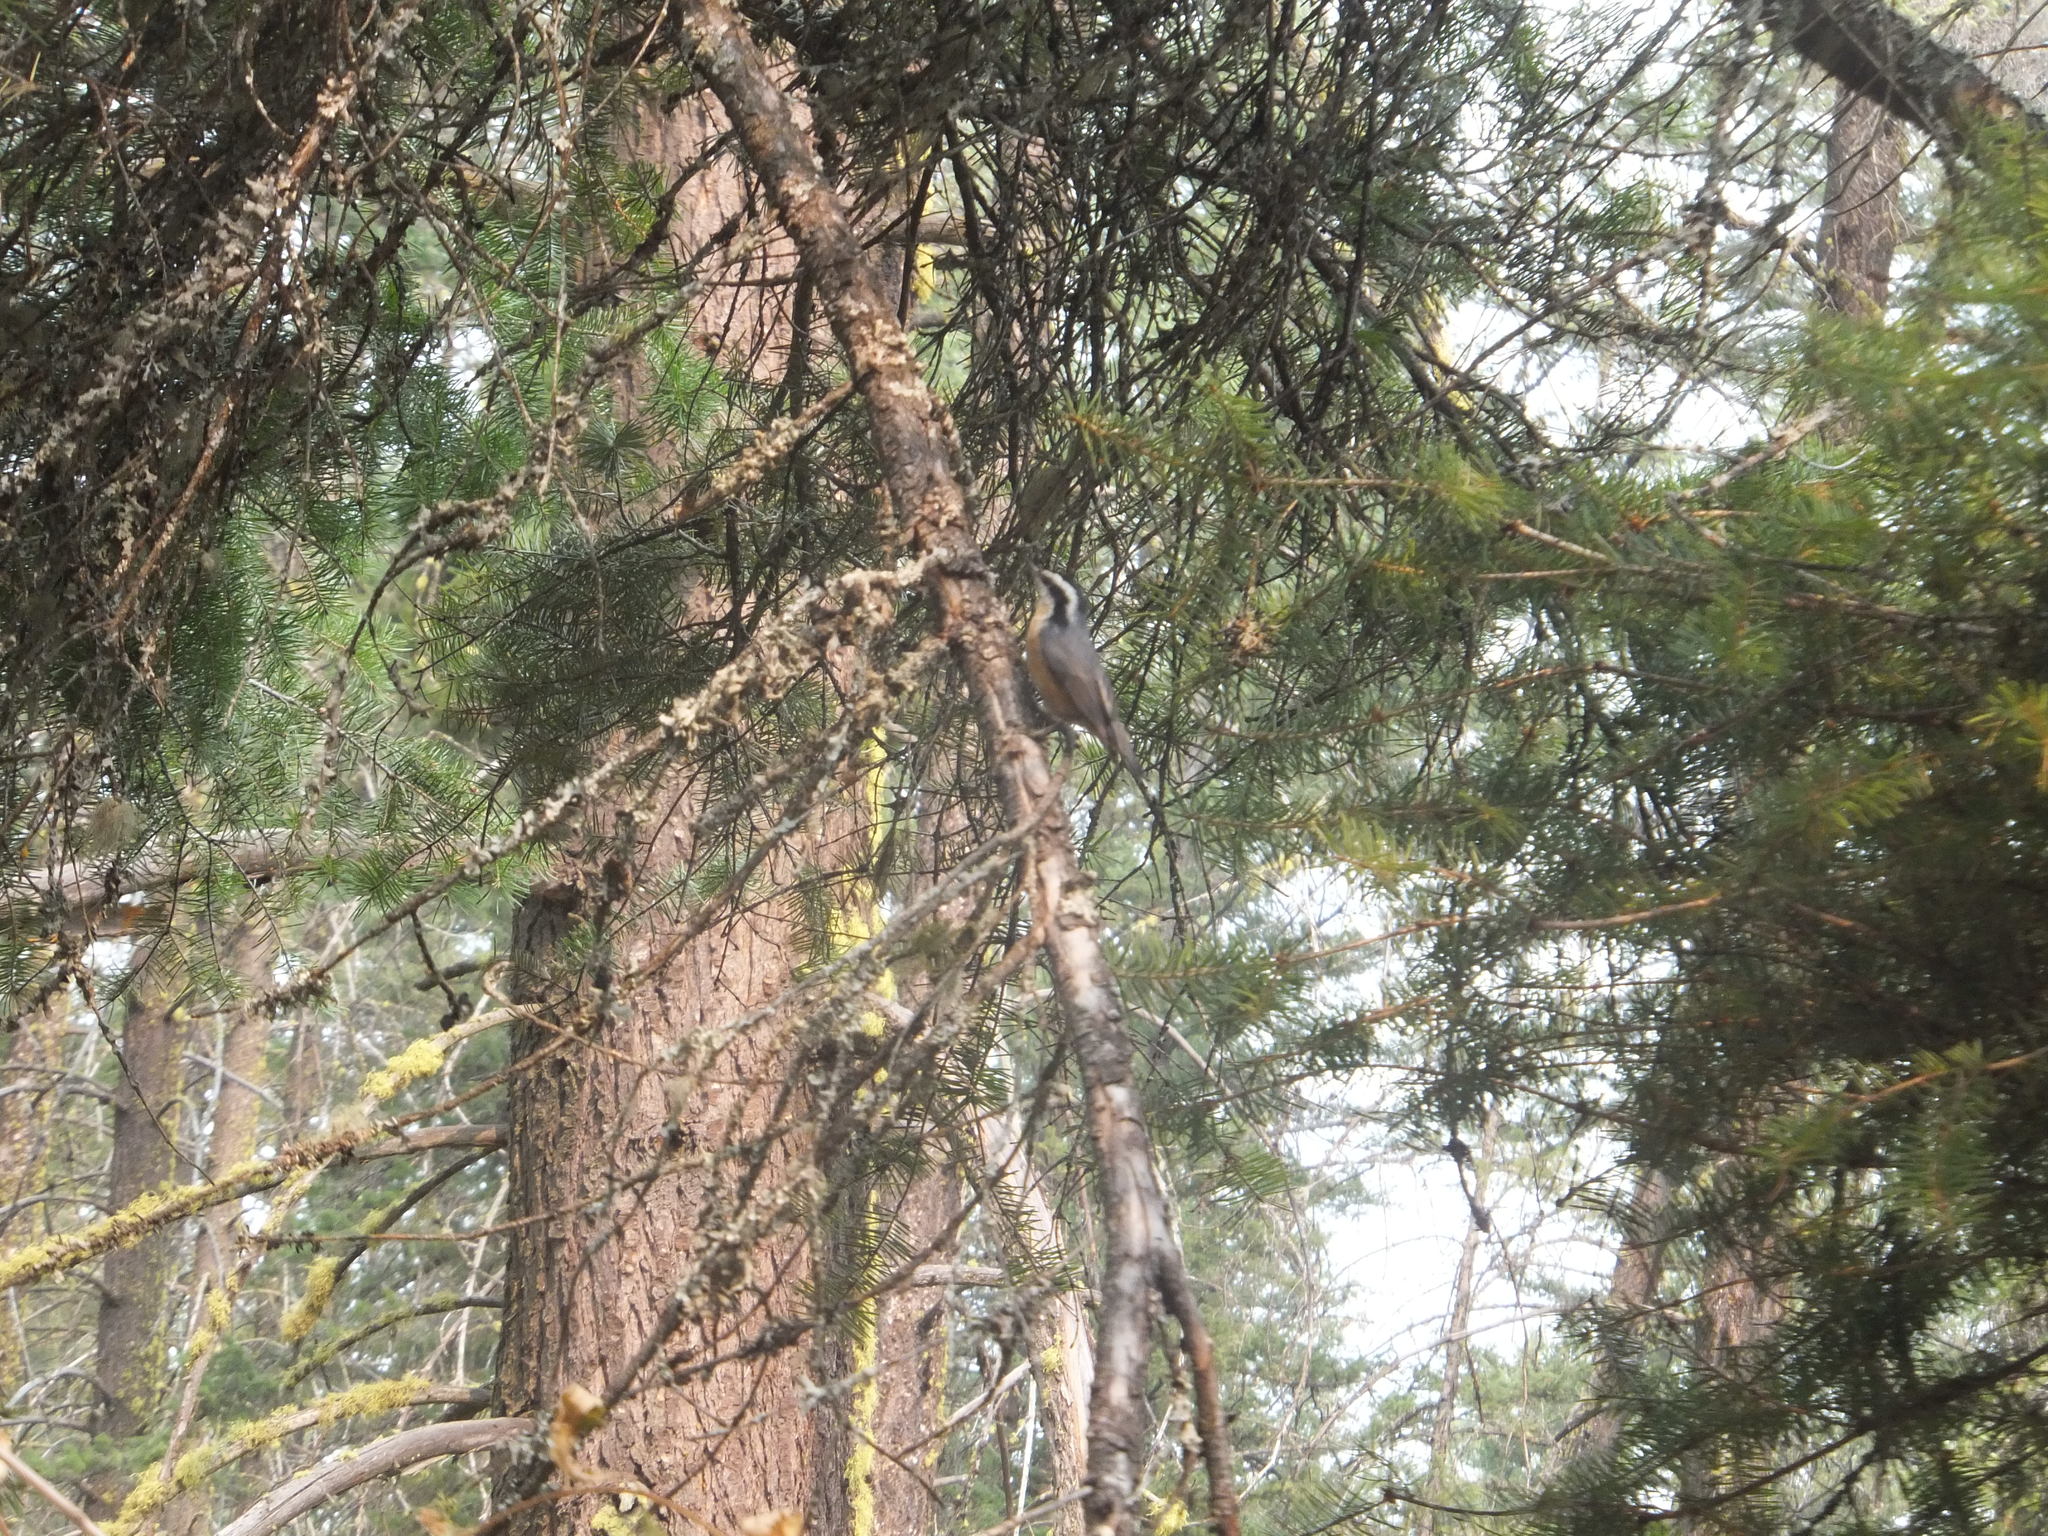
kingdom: Animalia
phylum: Chordata
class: Aves
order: Passeriformes
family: Sittidae
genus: Sitta
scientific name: Sitta canadensis
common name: Red-breasted nuthatch
